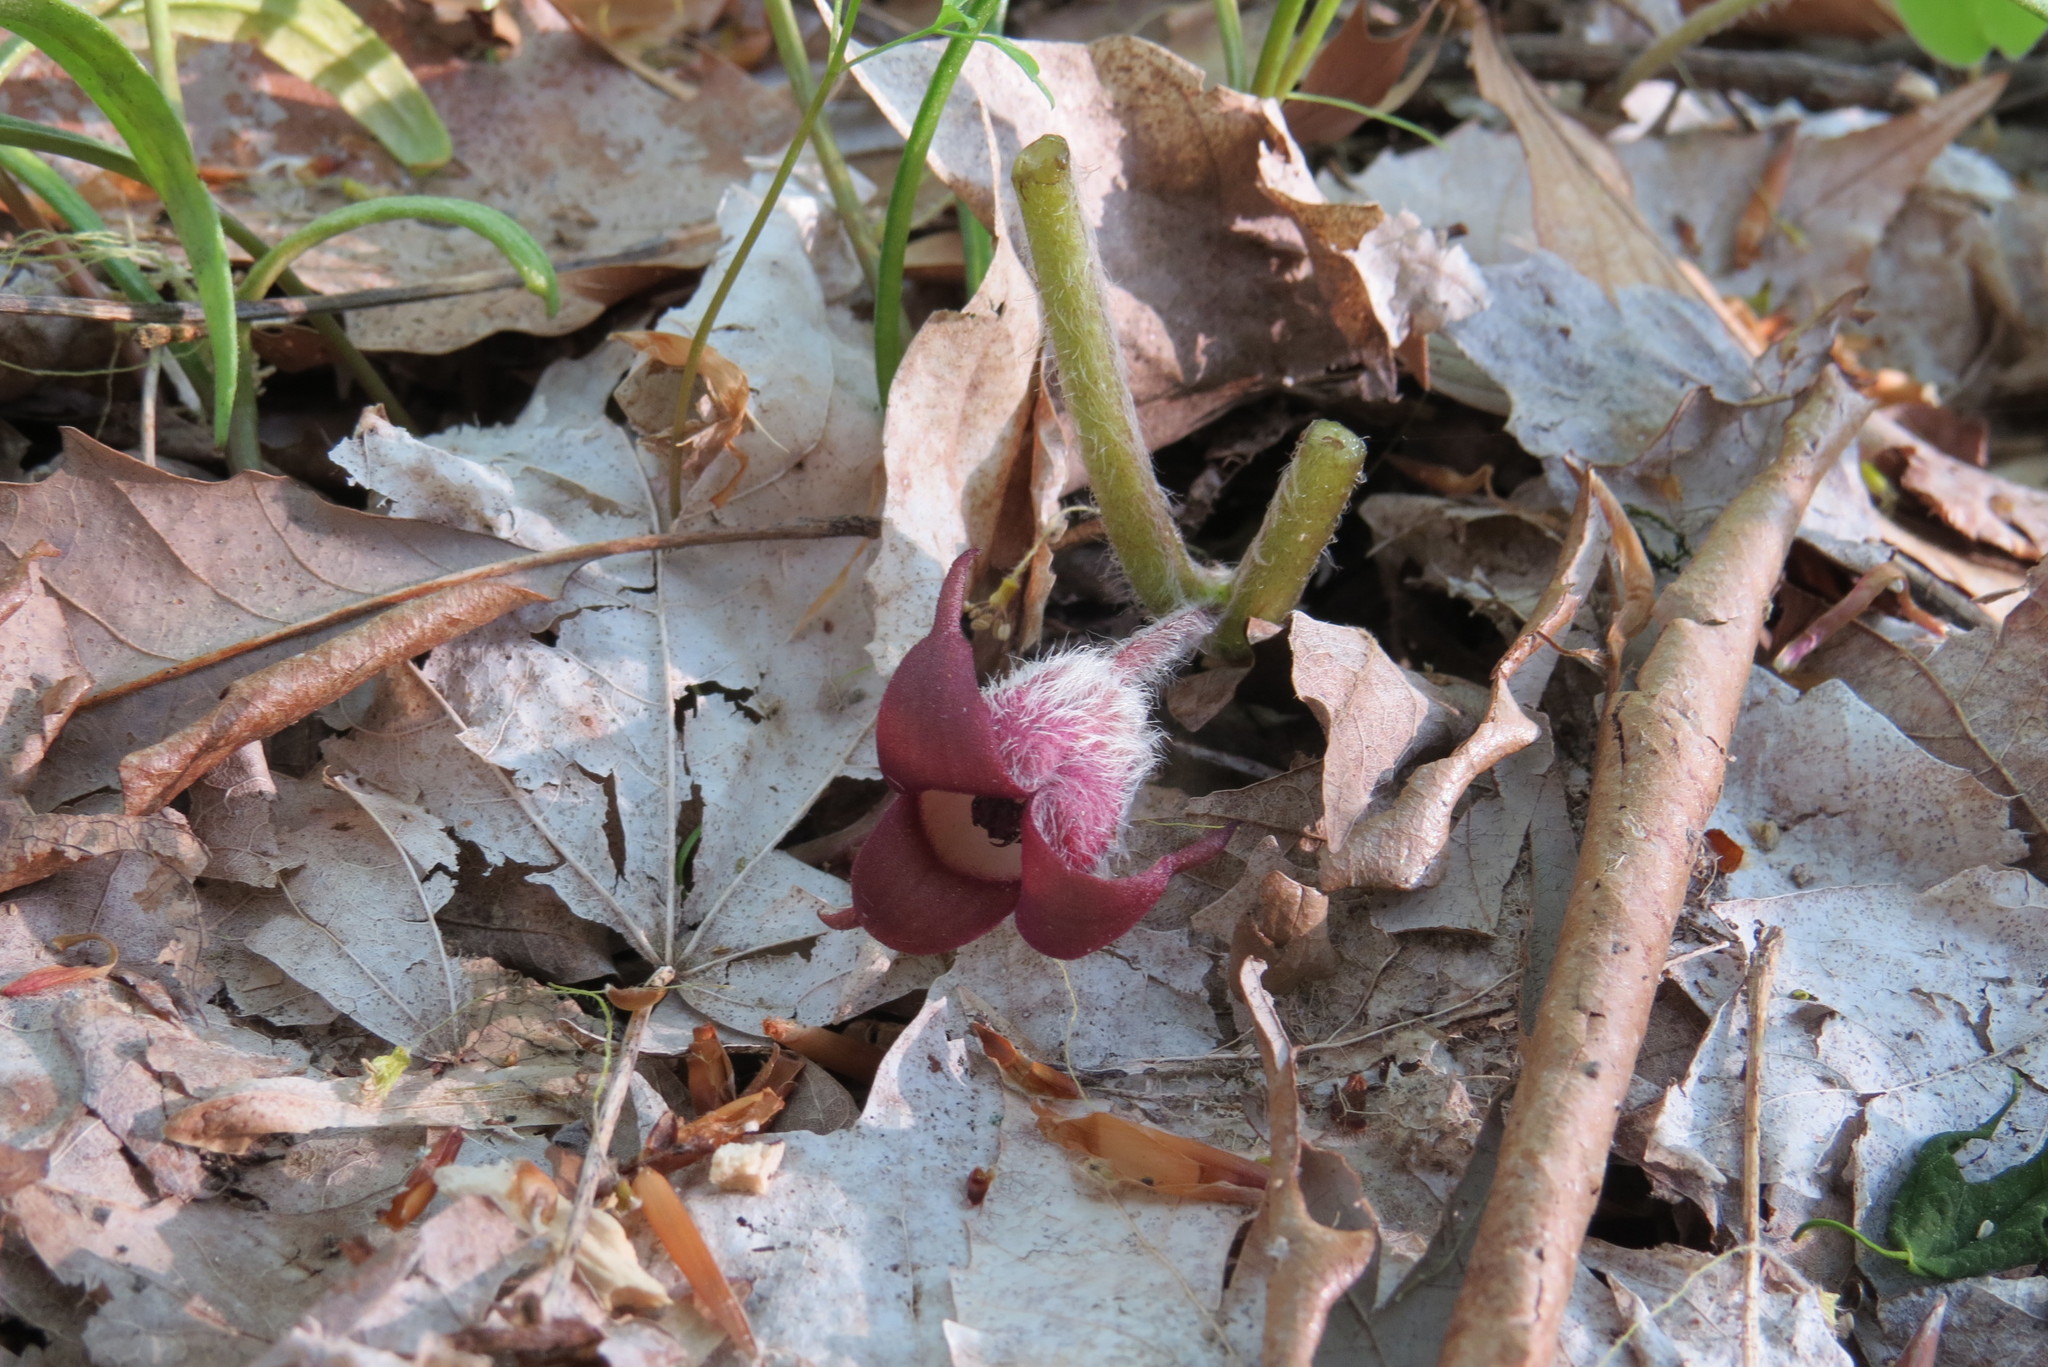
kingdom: Plantae
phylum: Tracheophyta
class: Magnoliopsida
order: Piperales
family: Aristolochiaceae
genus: Asarum
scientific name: Asarum canadense
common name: Wild ginger
